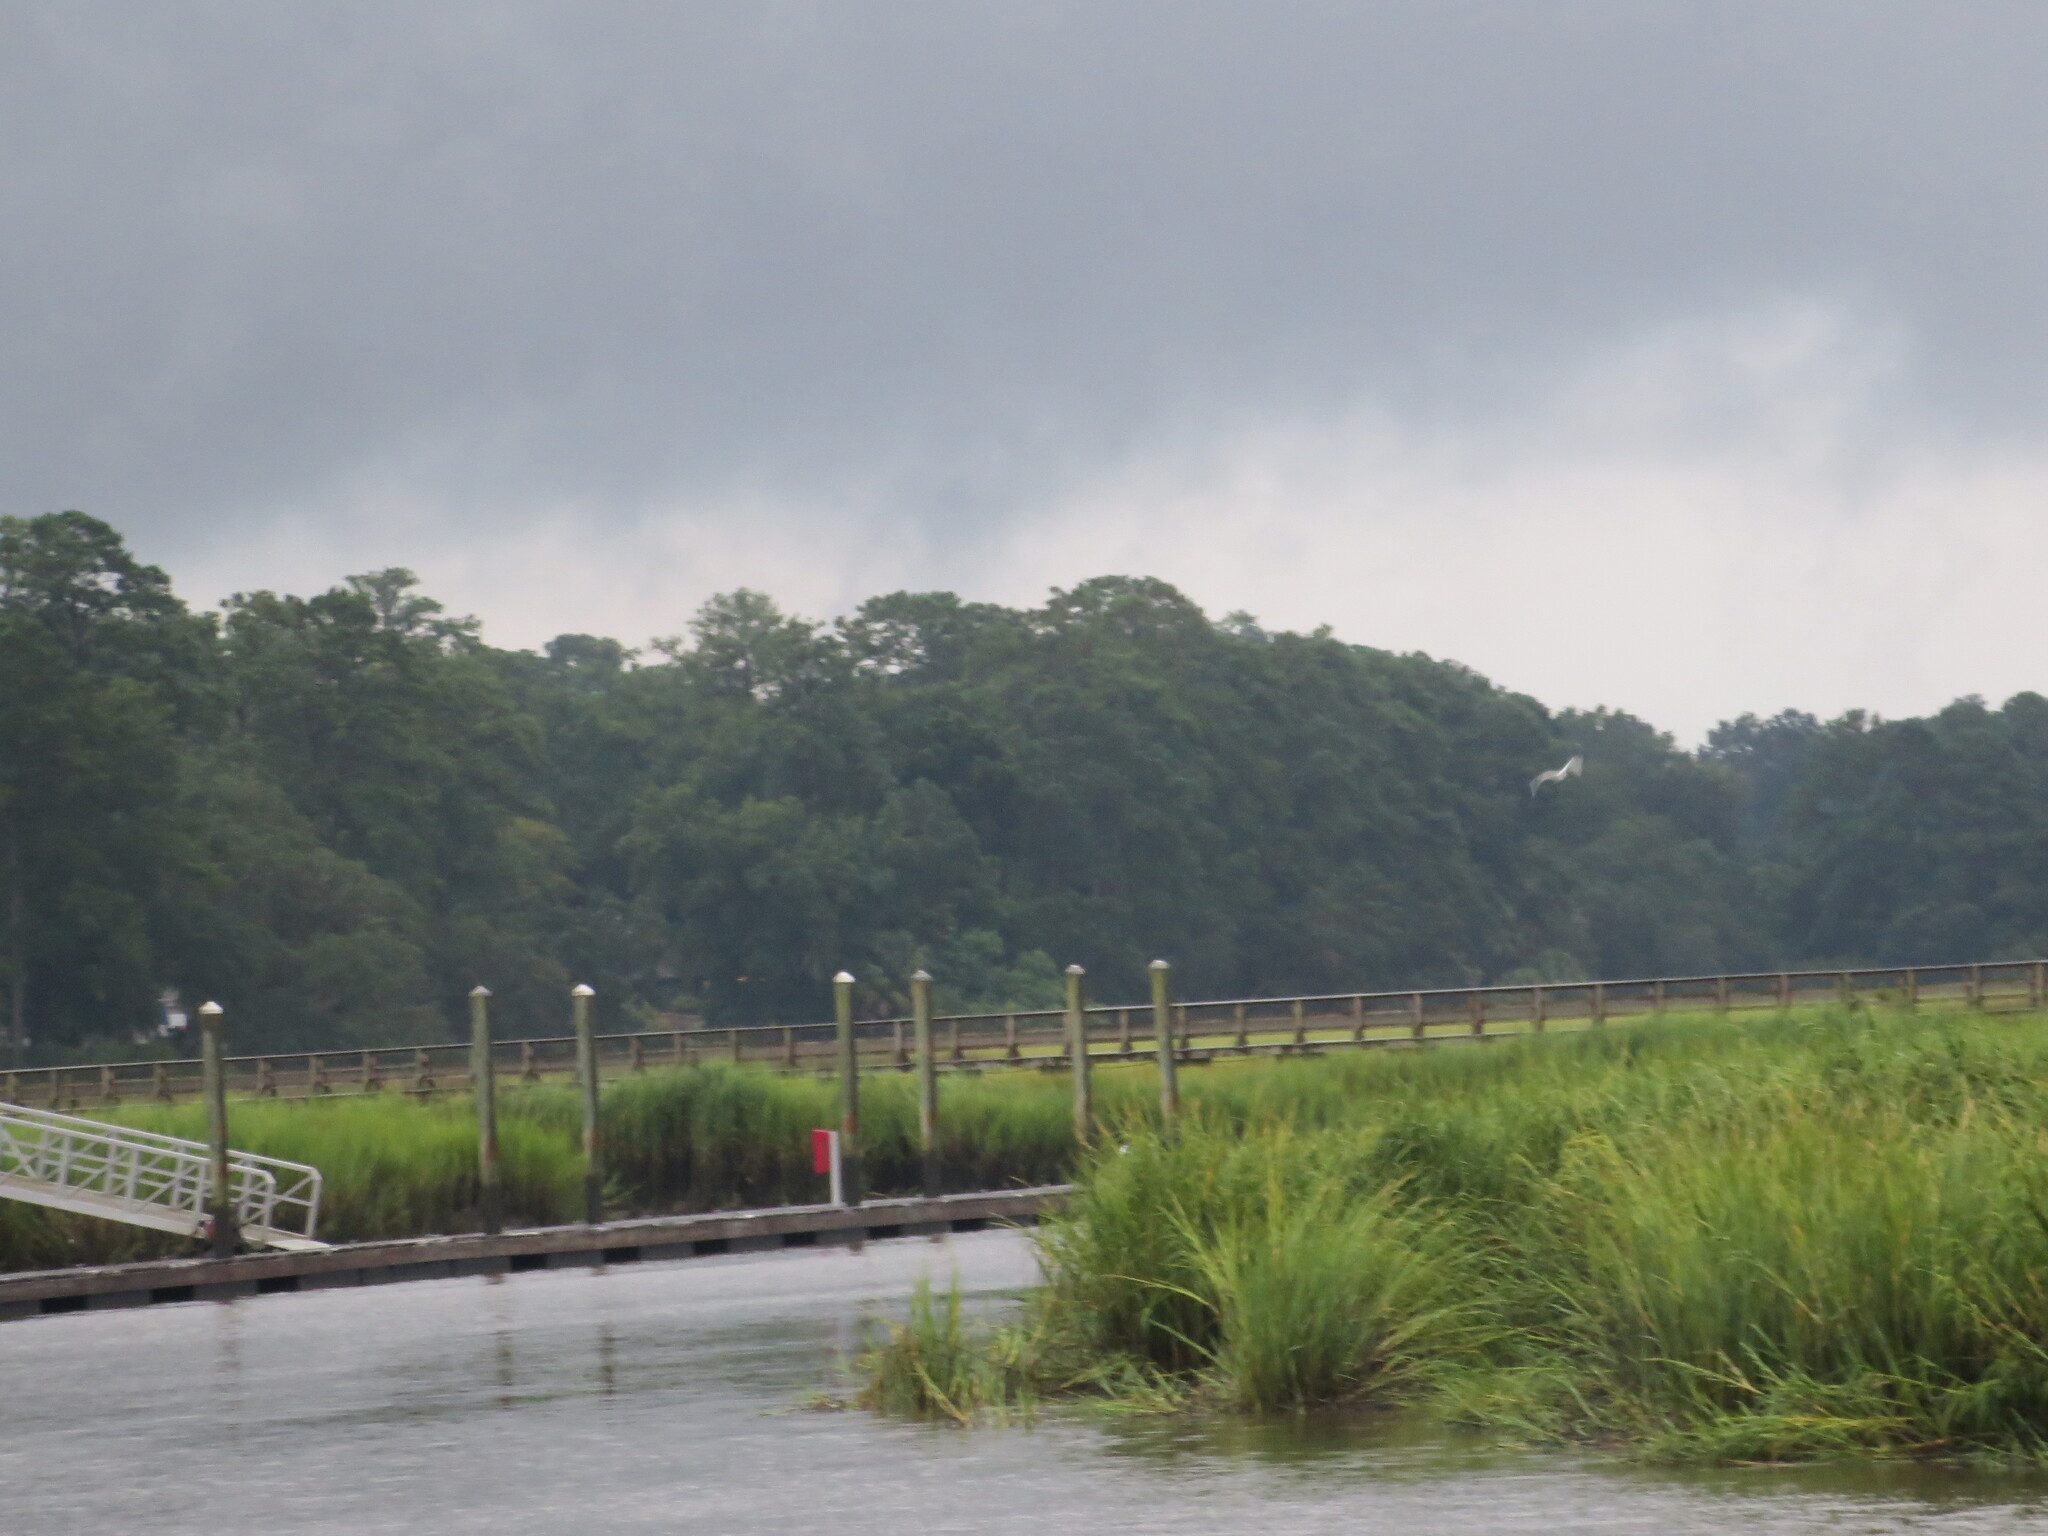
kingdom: Animalia
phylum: Chordata
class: Aves
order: Pelecaniformes
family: Ardeidae
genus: Ardea
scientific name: Ardea alba
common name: Great egret
